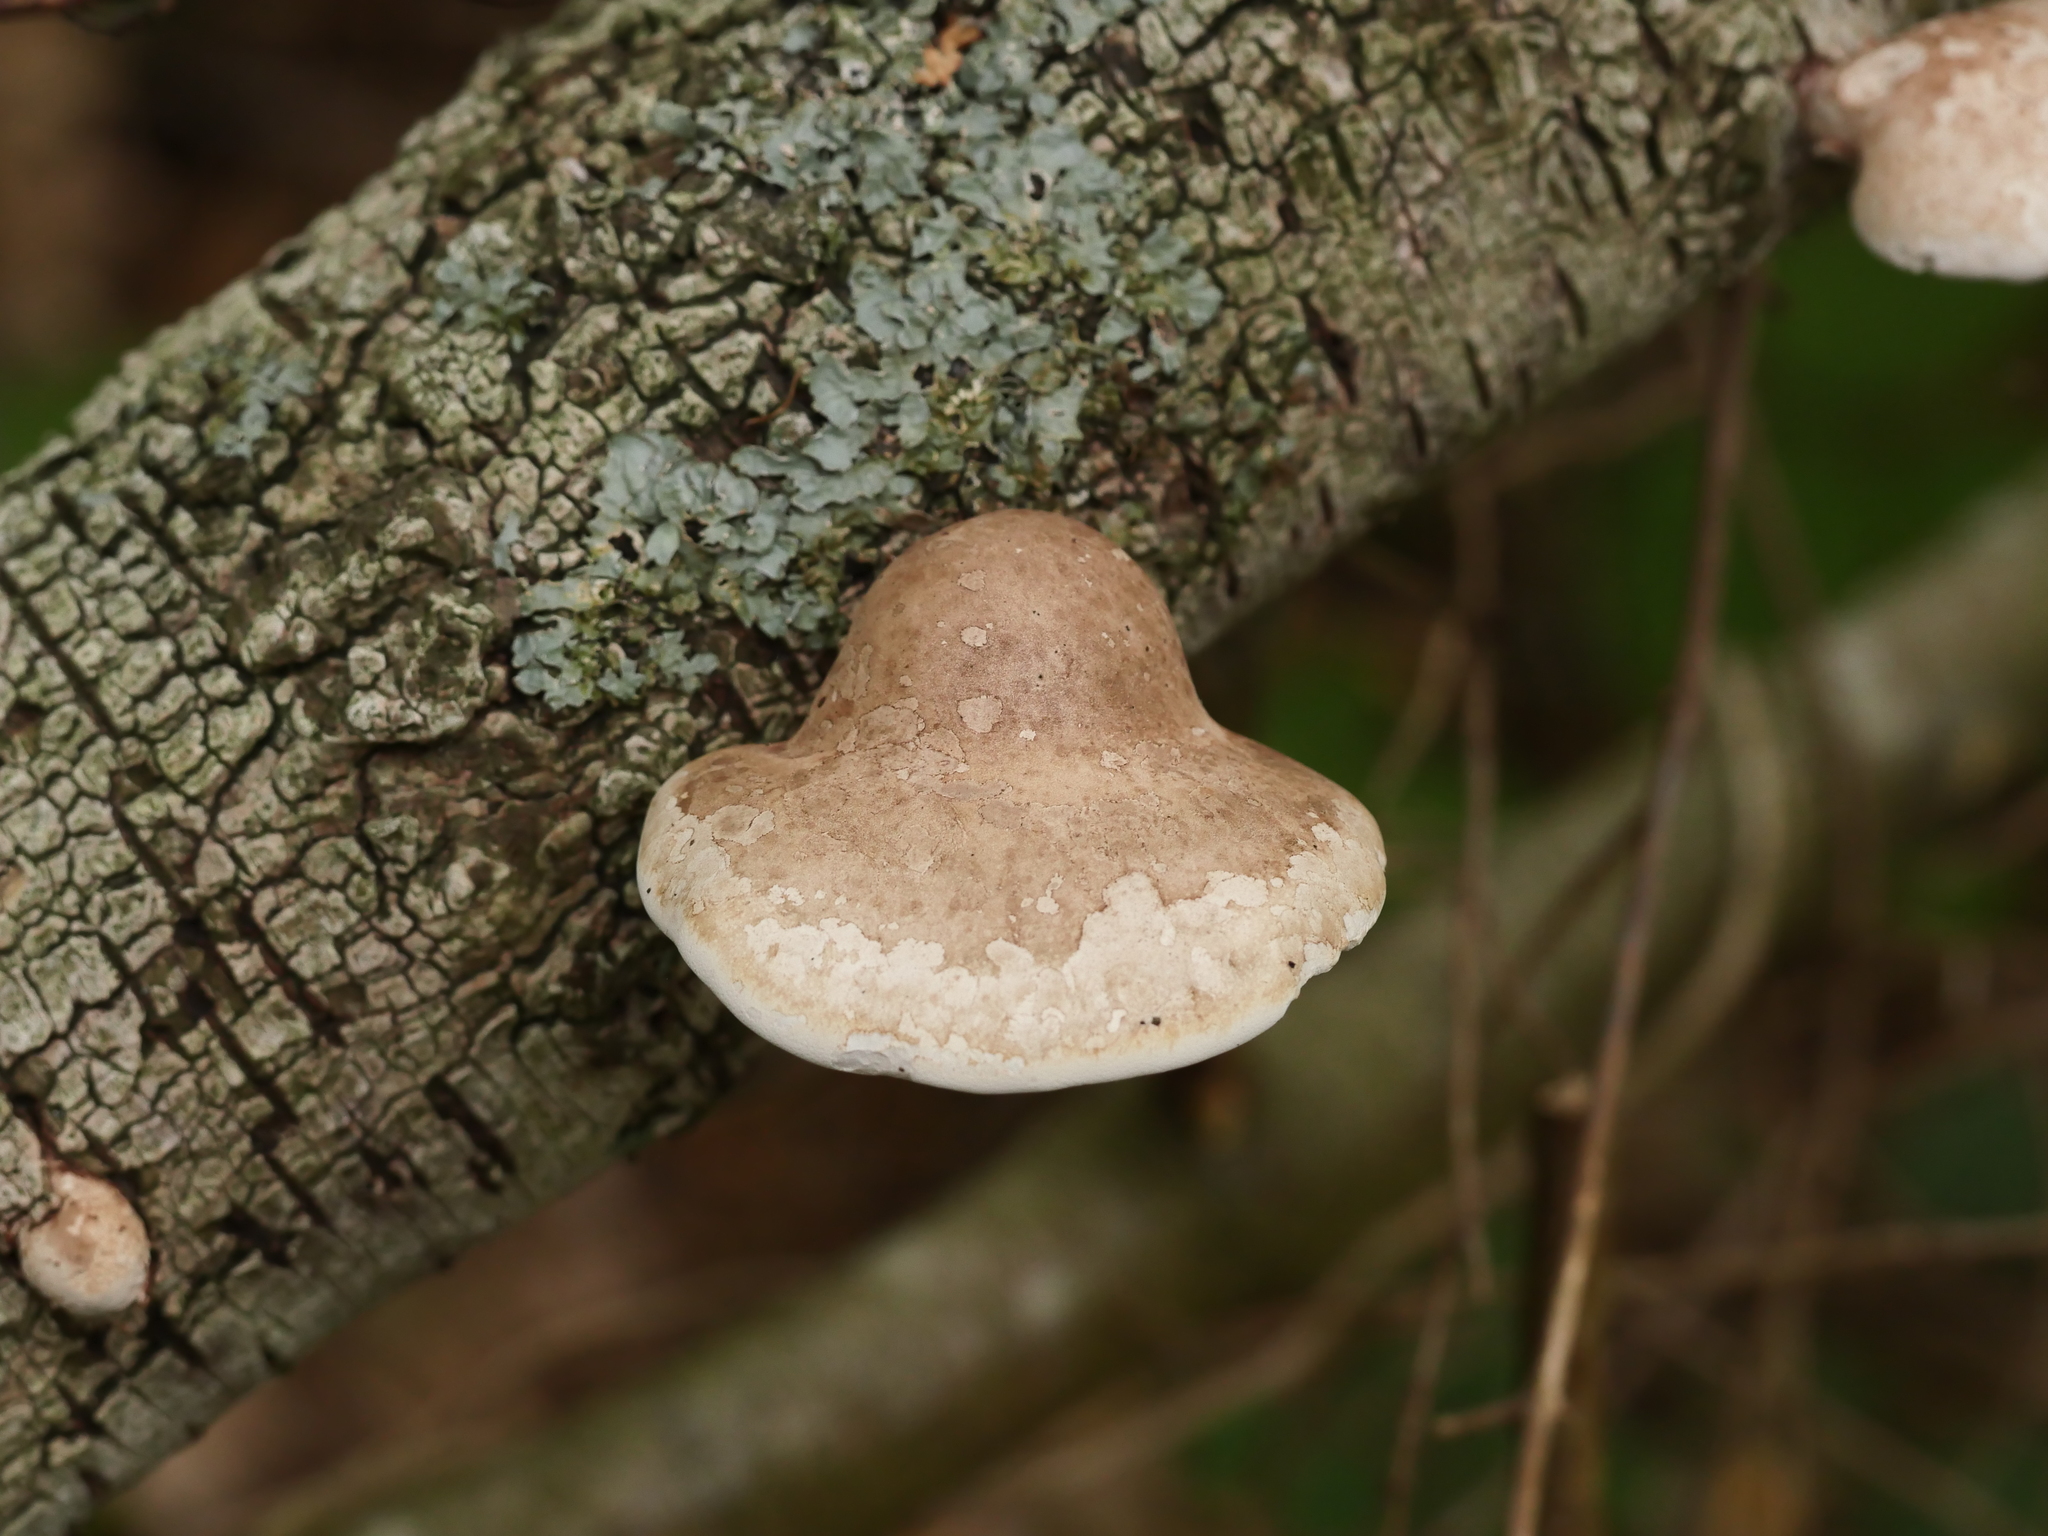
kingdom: Fungi
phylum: Basidiomycota
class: Agaricomycetes
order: Polyporales
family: Fomitopsidaceae
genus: Fomitopsis
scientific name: Fomitopsis betulina
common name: Birch polypore
